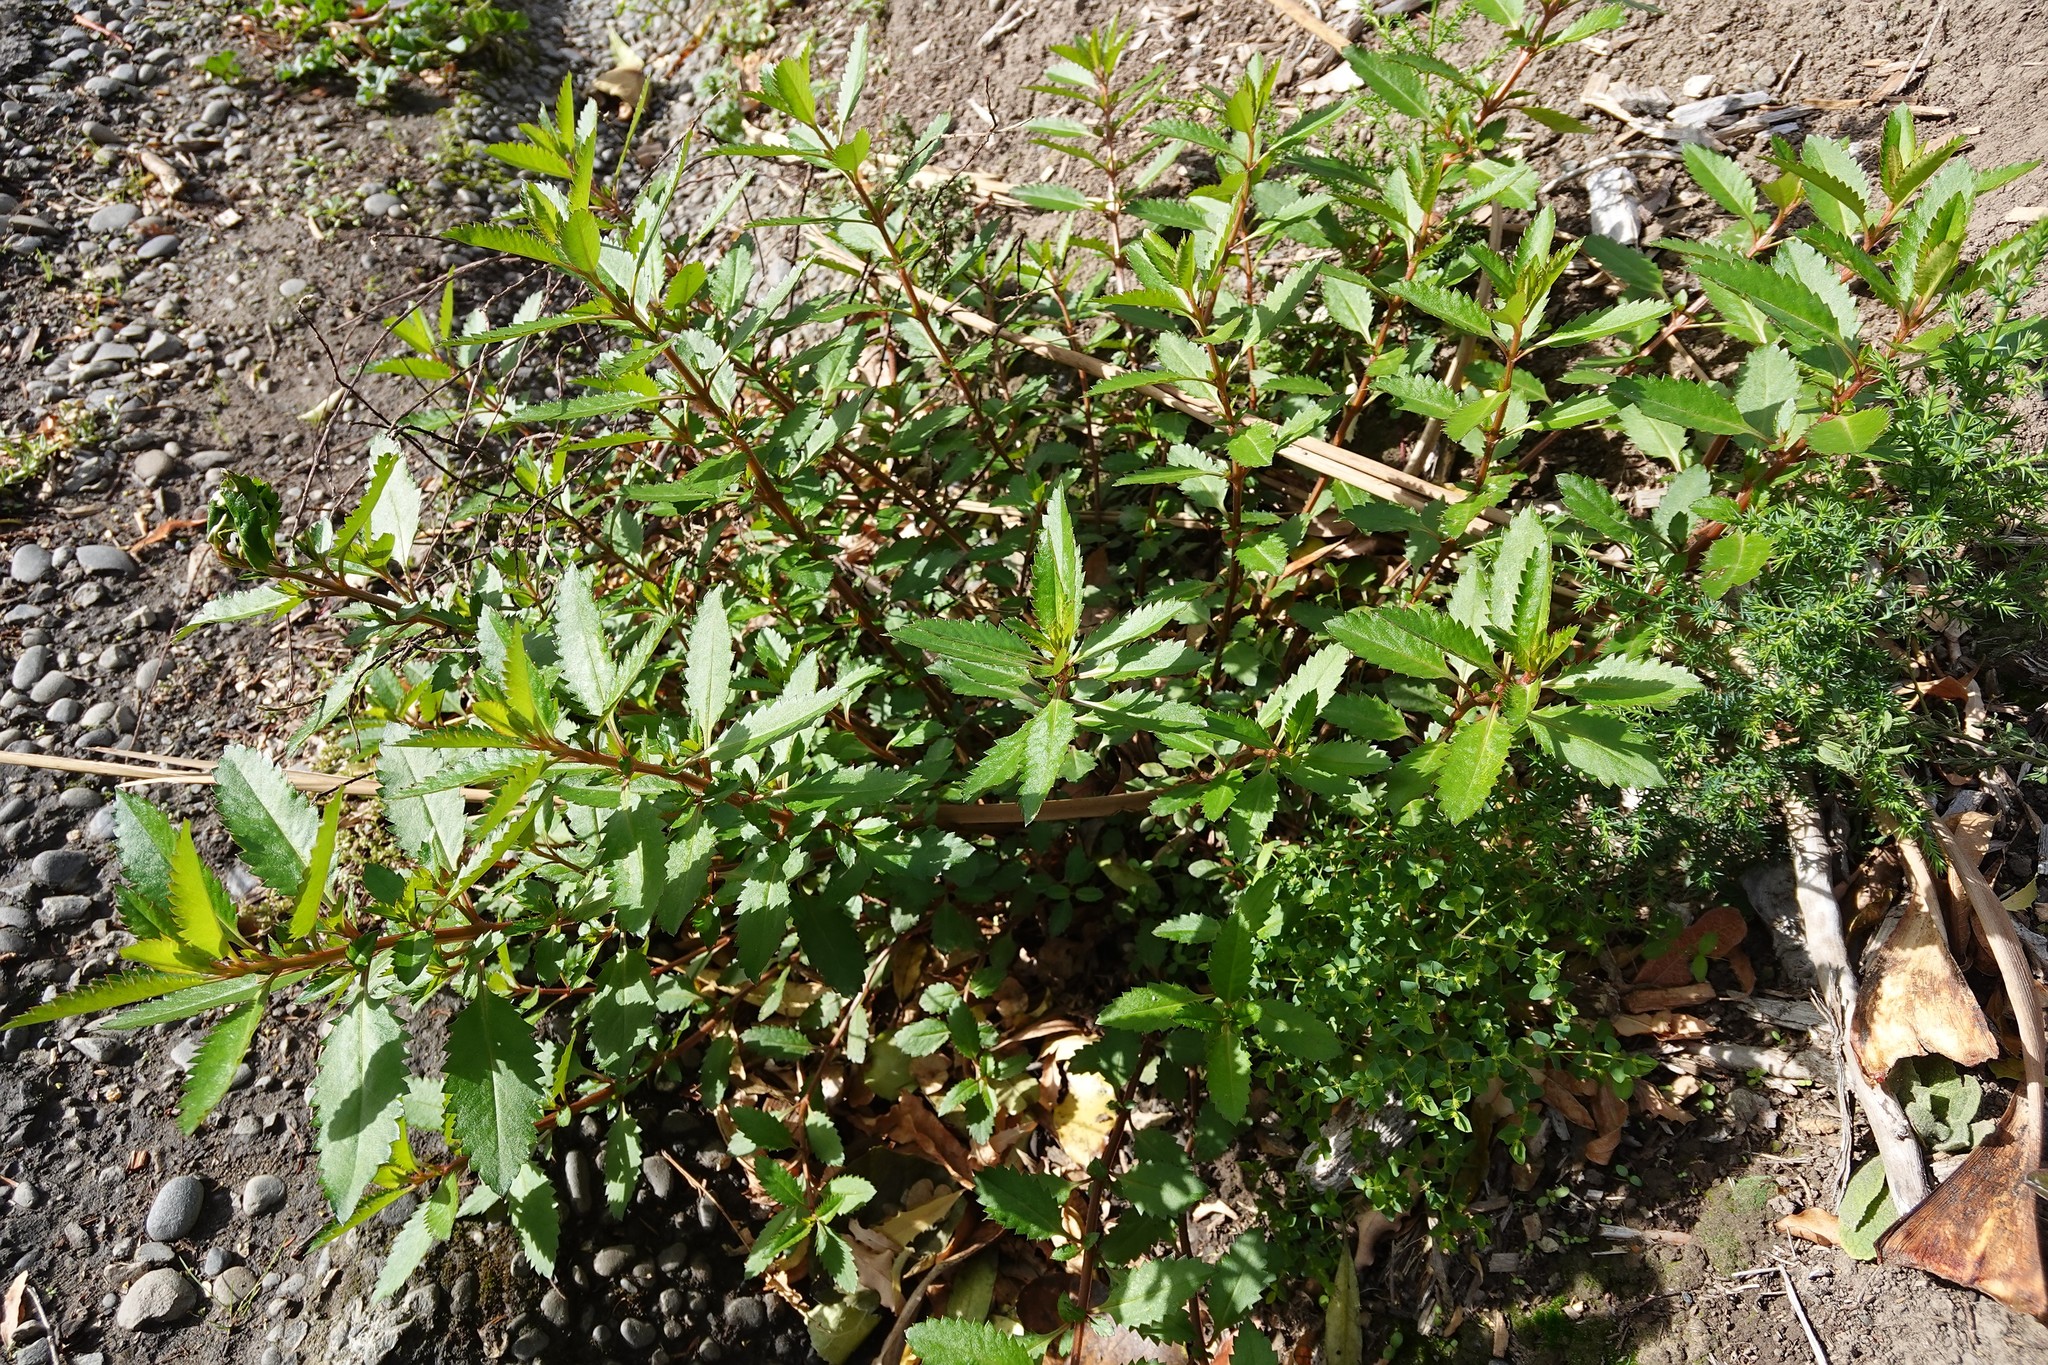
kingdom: Plantae
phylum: Tracheophyta
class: Magnoliopsida
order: Saxifragales
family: Haloragaceae
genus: Haloragis
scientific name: Haloragis erecta
